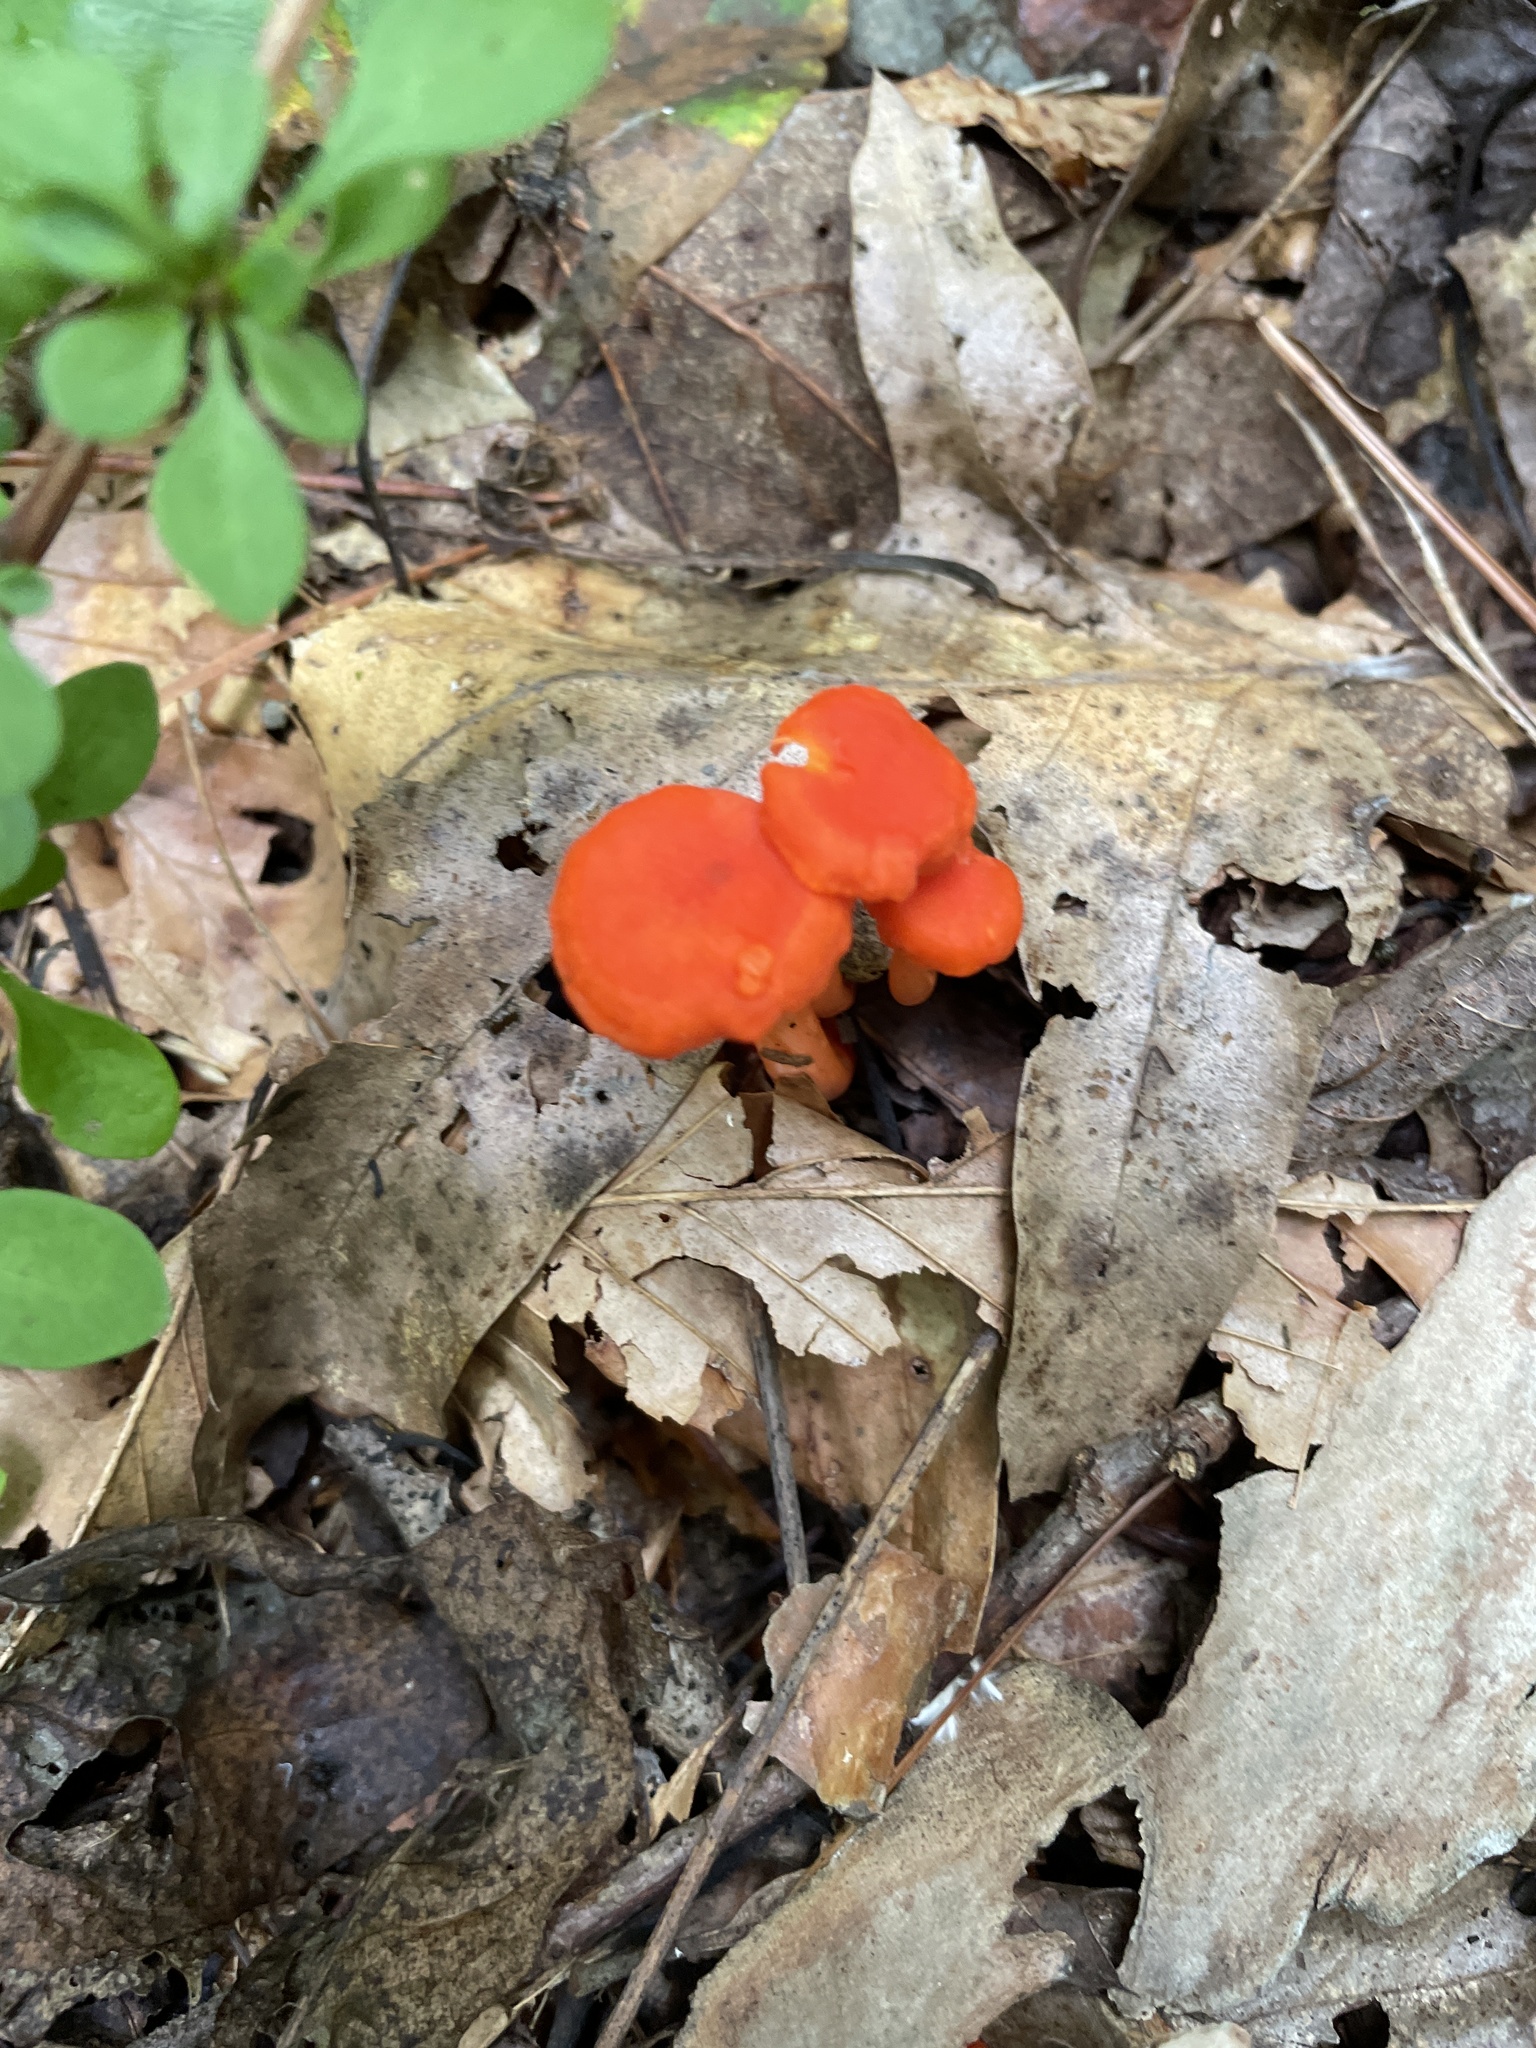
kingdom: Fungi
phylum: Basidiomycota
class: Agaricomycetes
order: Cantharellales
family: Hydnaceae
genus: Cantharellus
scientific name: Cantharellus cinnabarinus
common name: Cinnabar chanterelle
